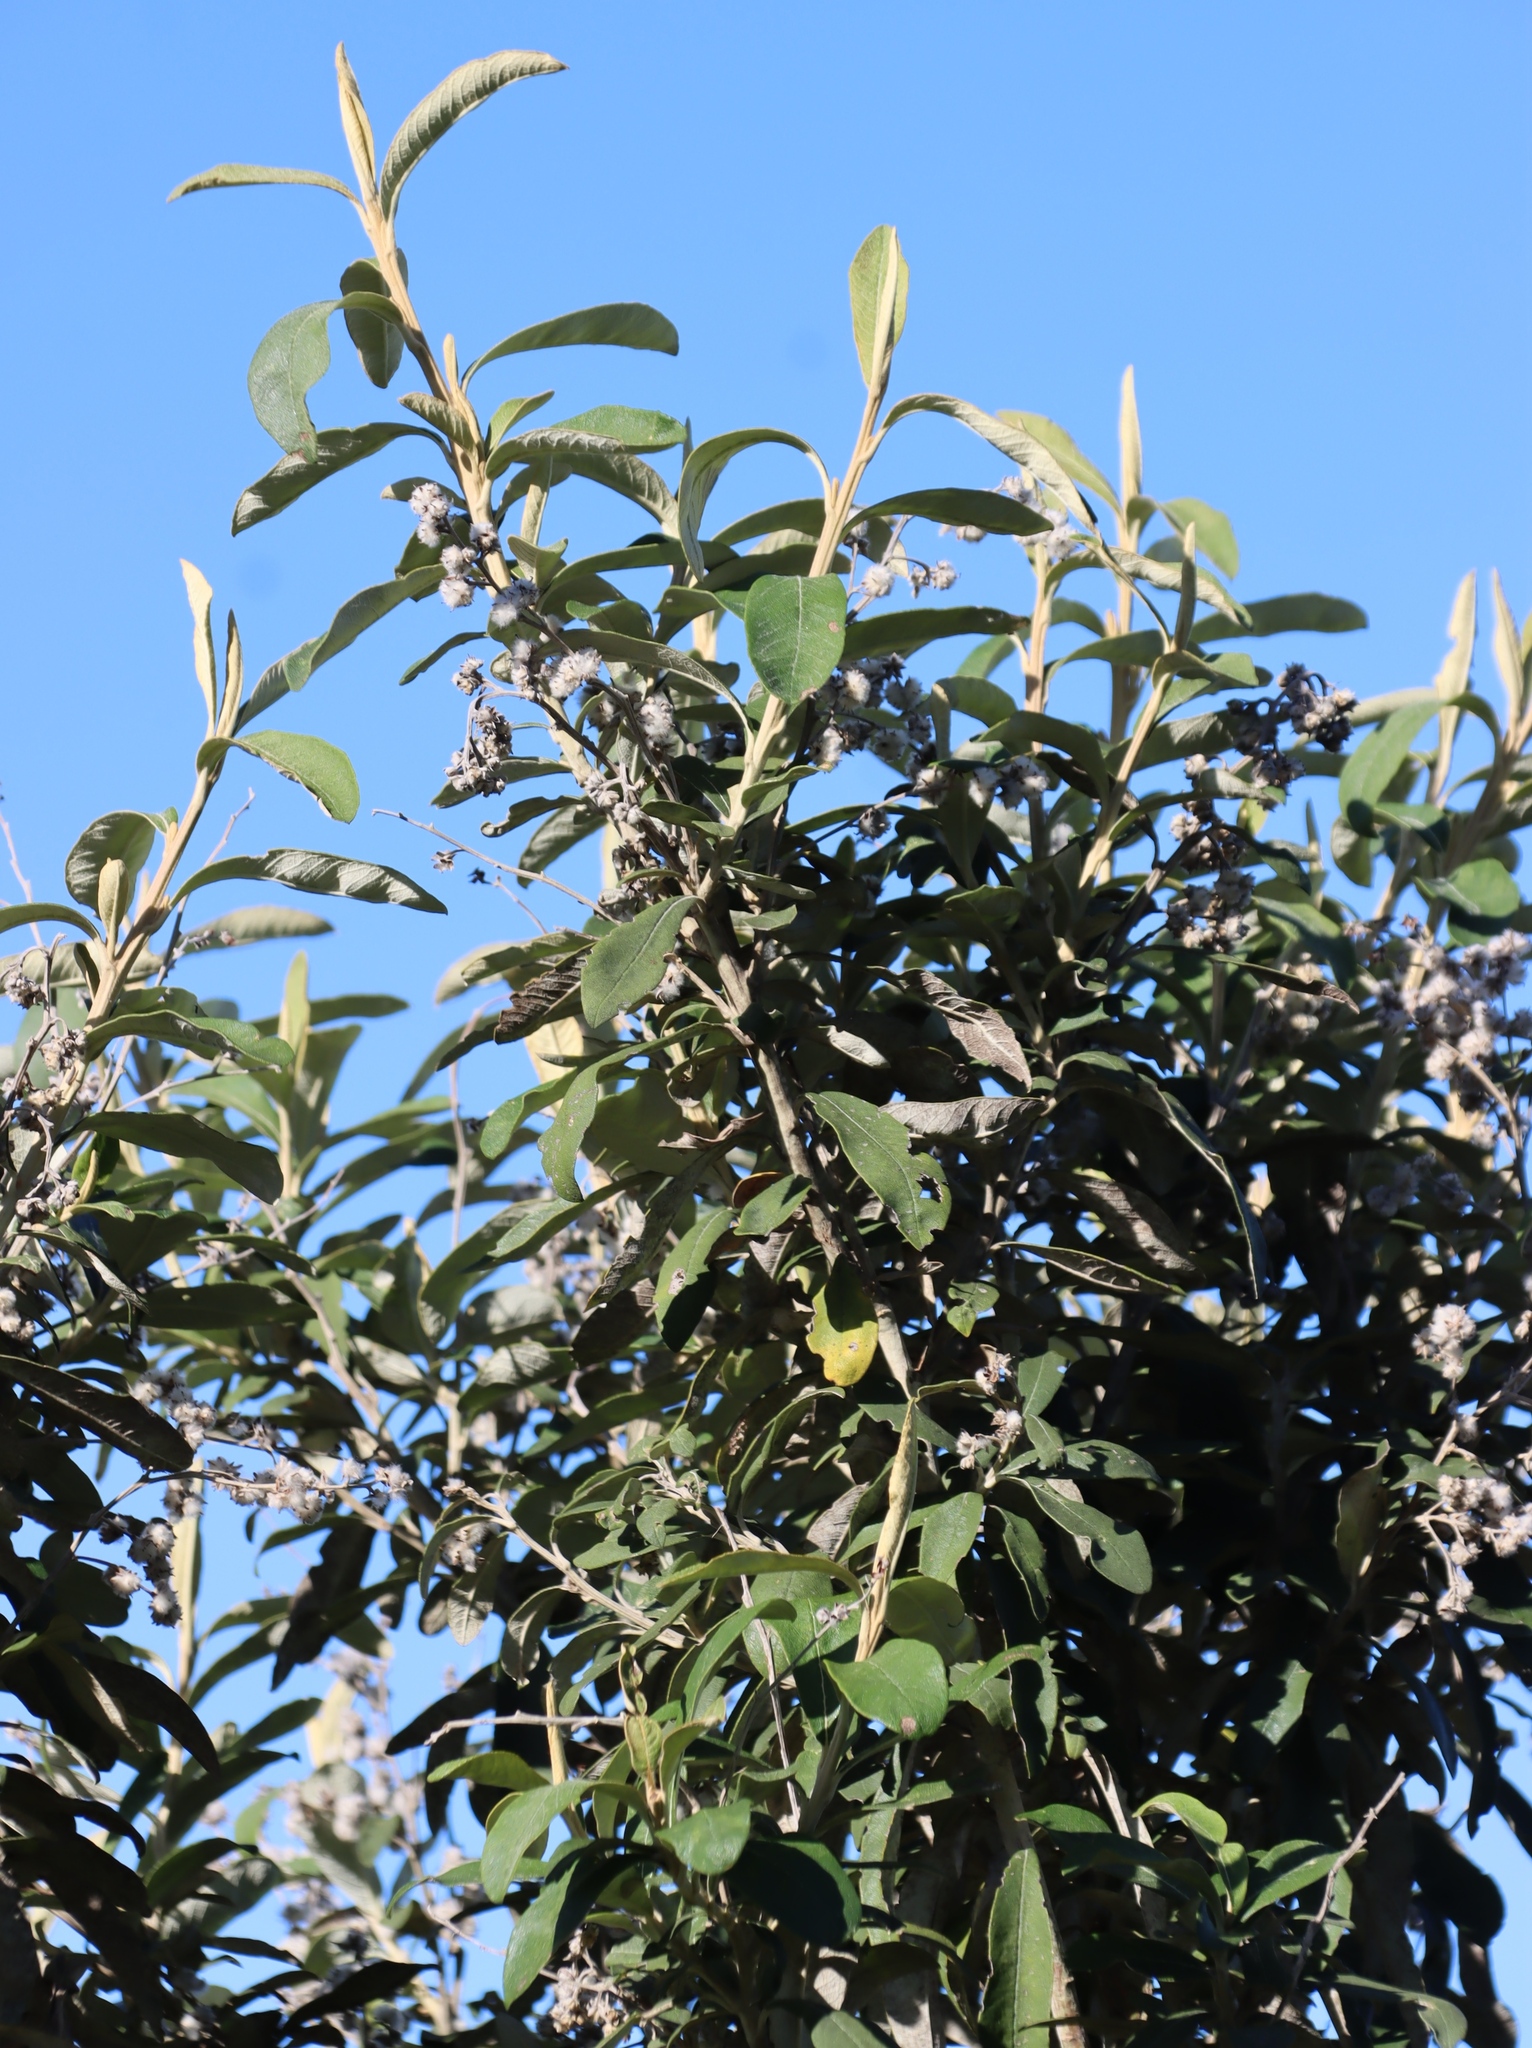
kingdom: Plantae
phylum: Tracheophyta
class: Magnoliopsida
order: Asterales
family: Asteraceae
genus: Tarchonanthus
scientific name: Tarchonanthus littoralis
